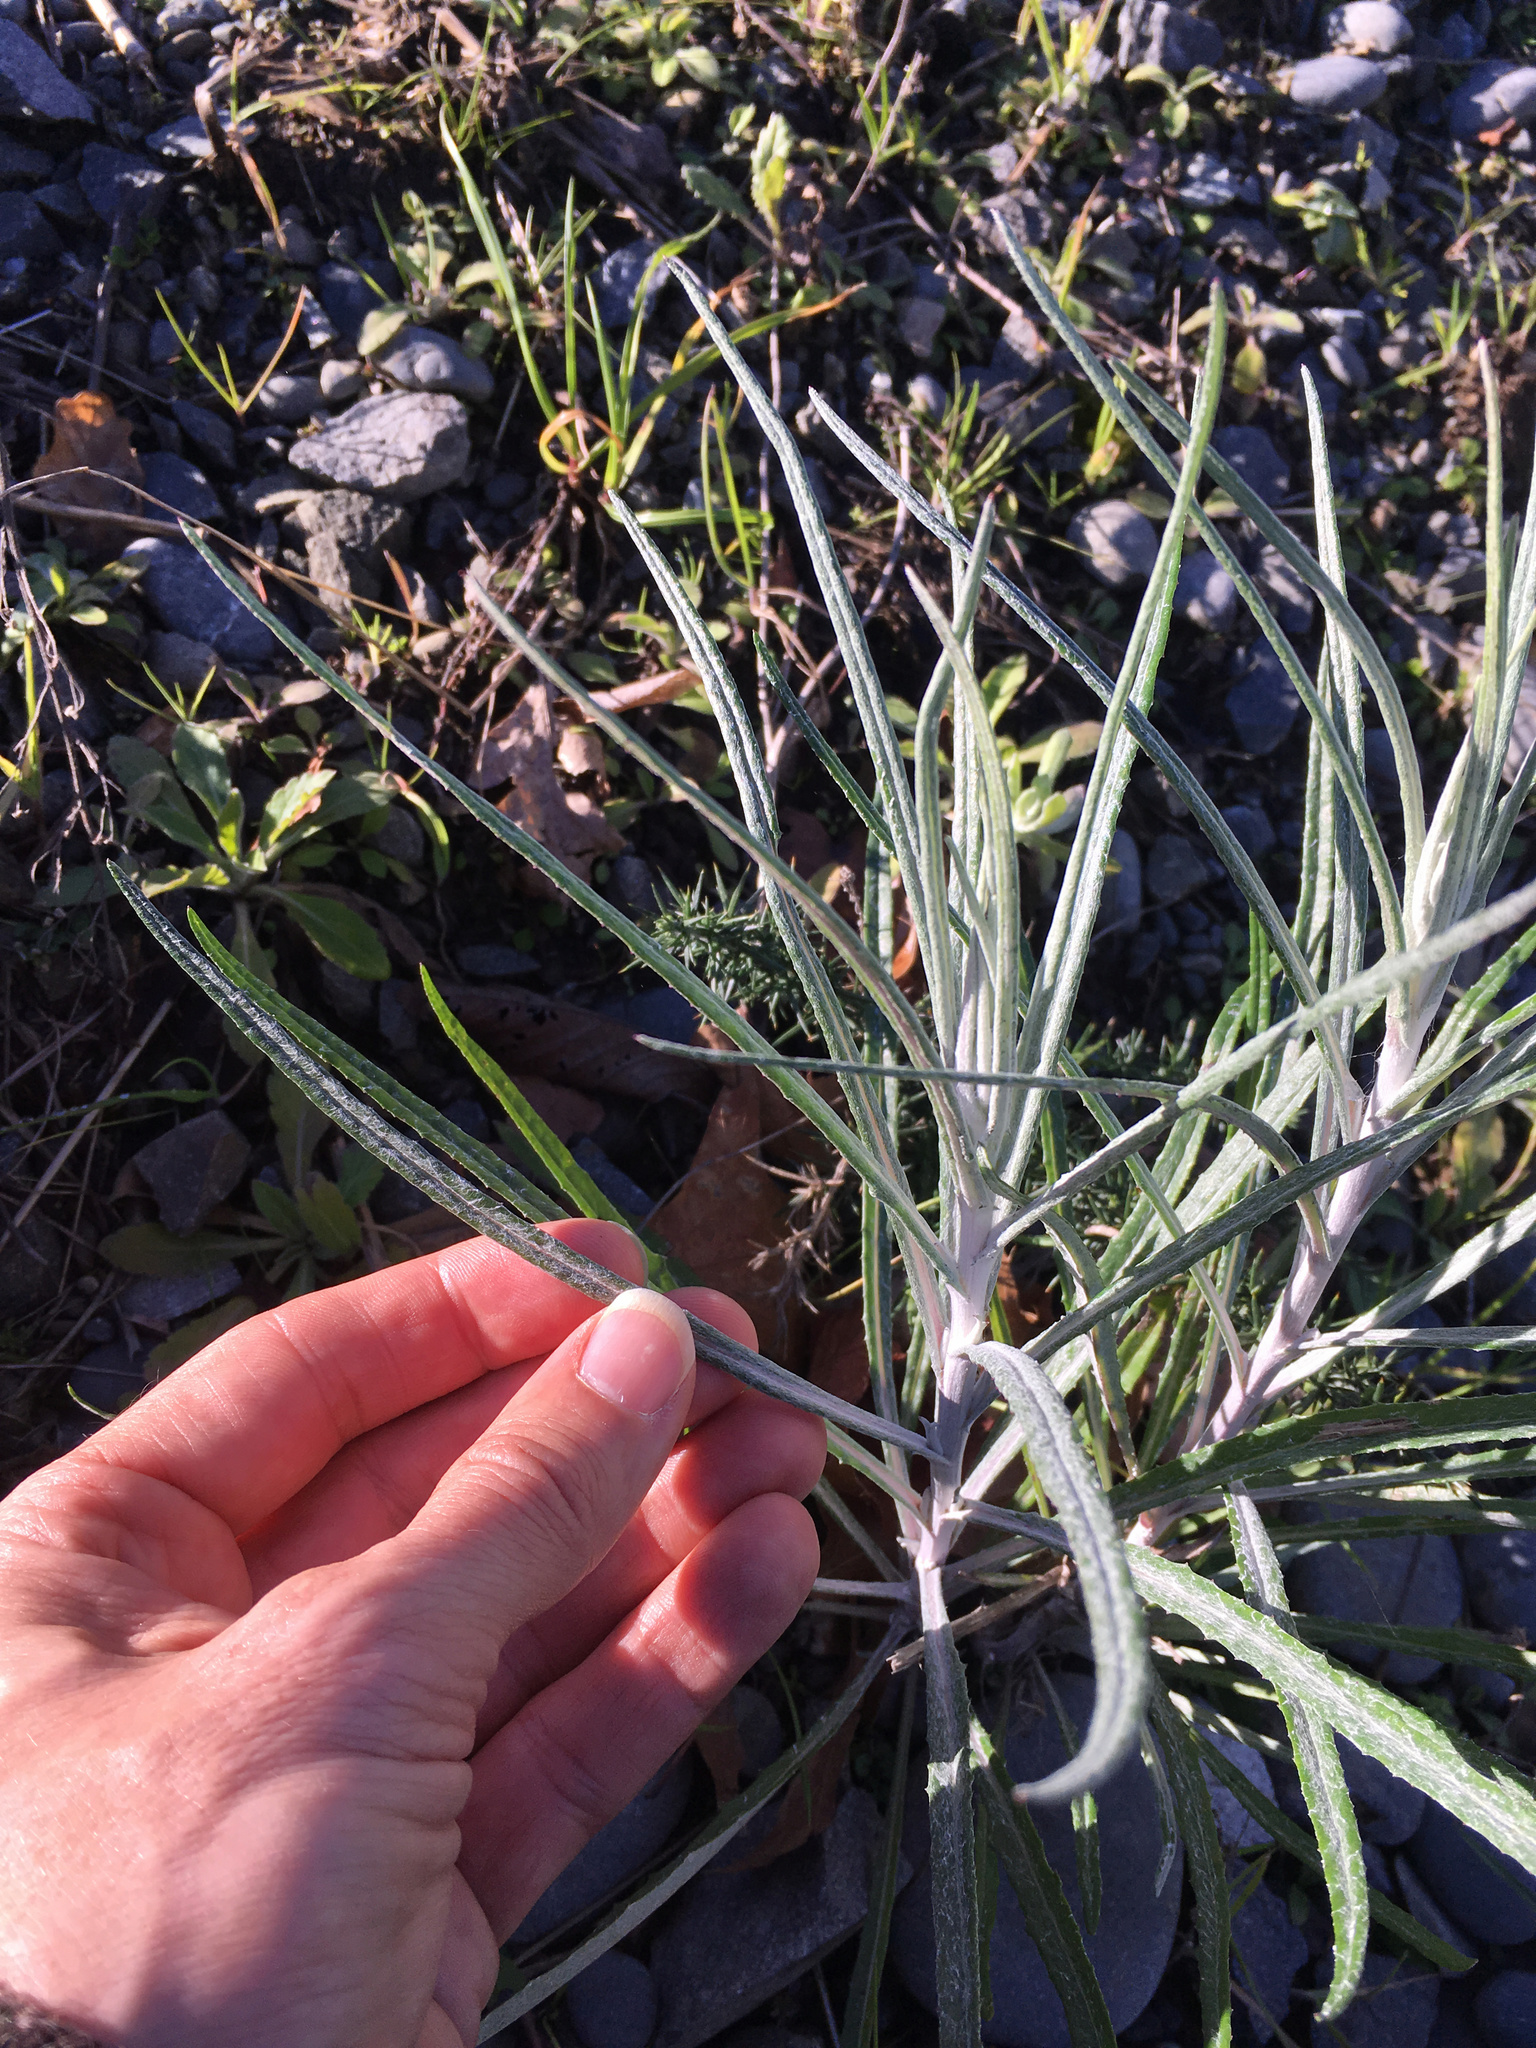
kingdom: Plantae
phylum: Tracheophyta
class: Magnoliopsida
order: Asterales
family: Asteraceae
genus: Senecio
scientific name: Senecio quadridentatus
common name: Cotton fireweed
